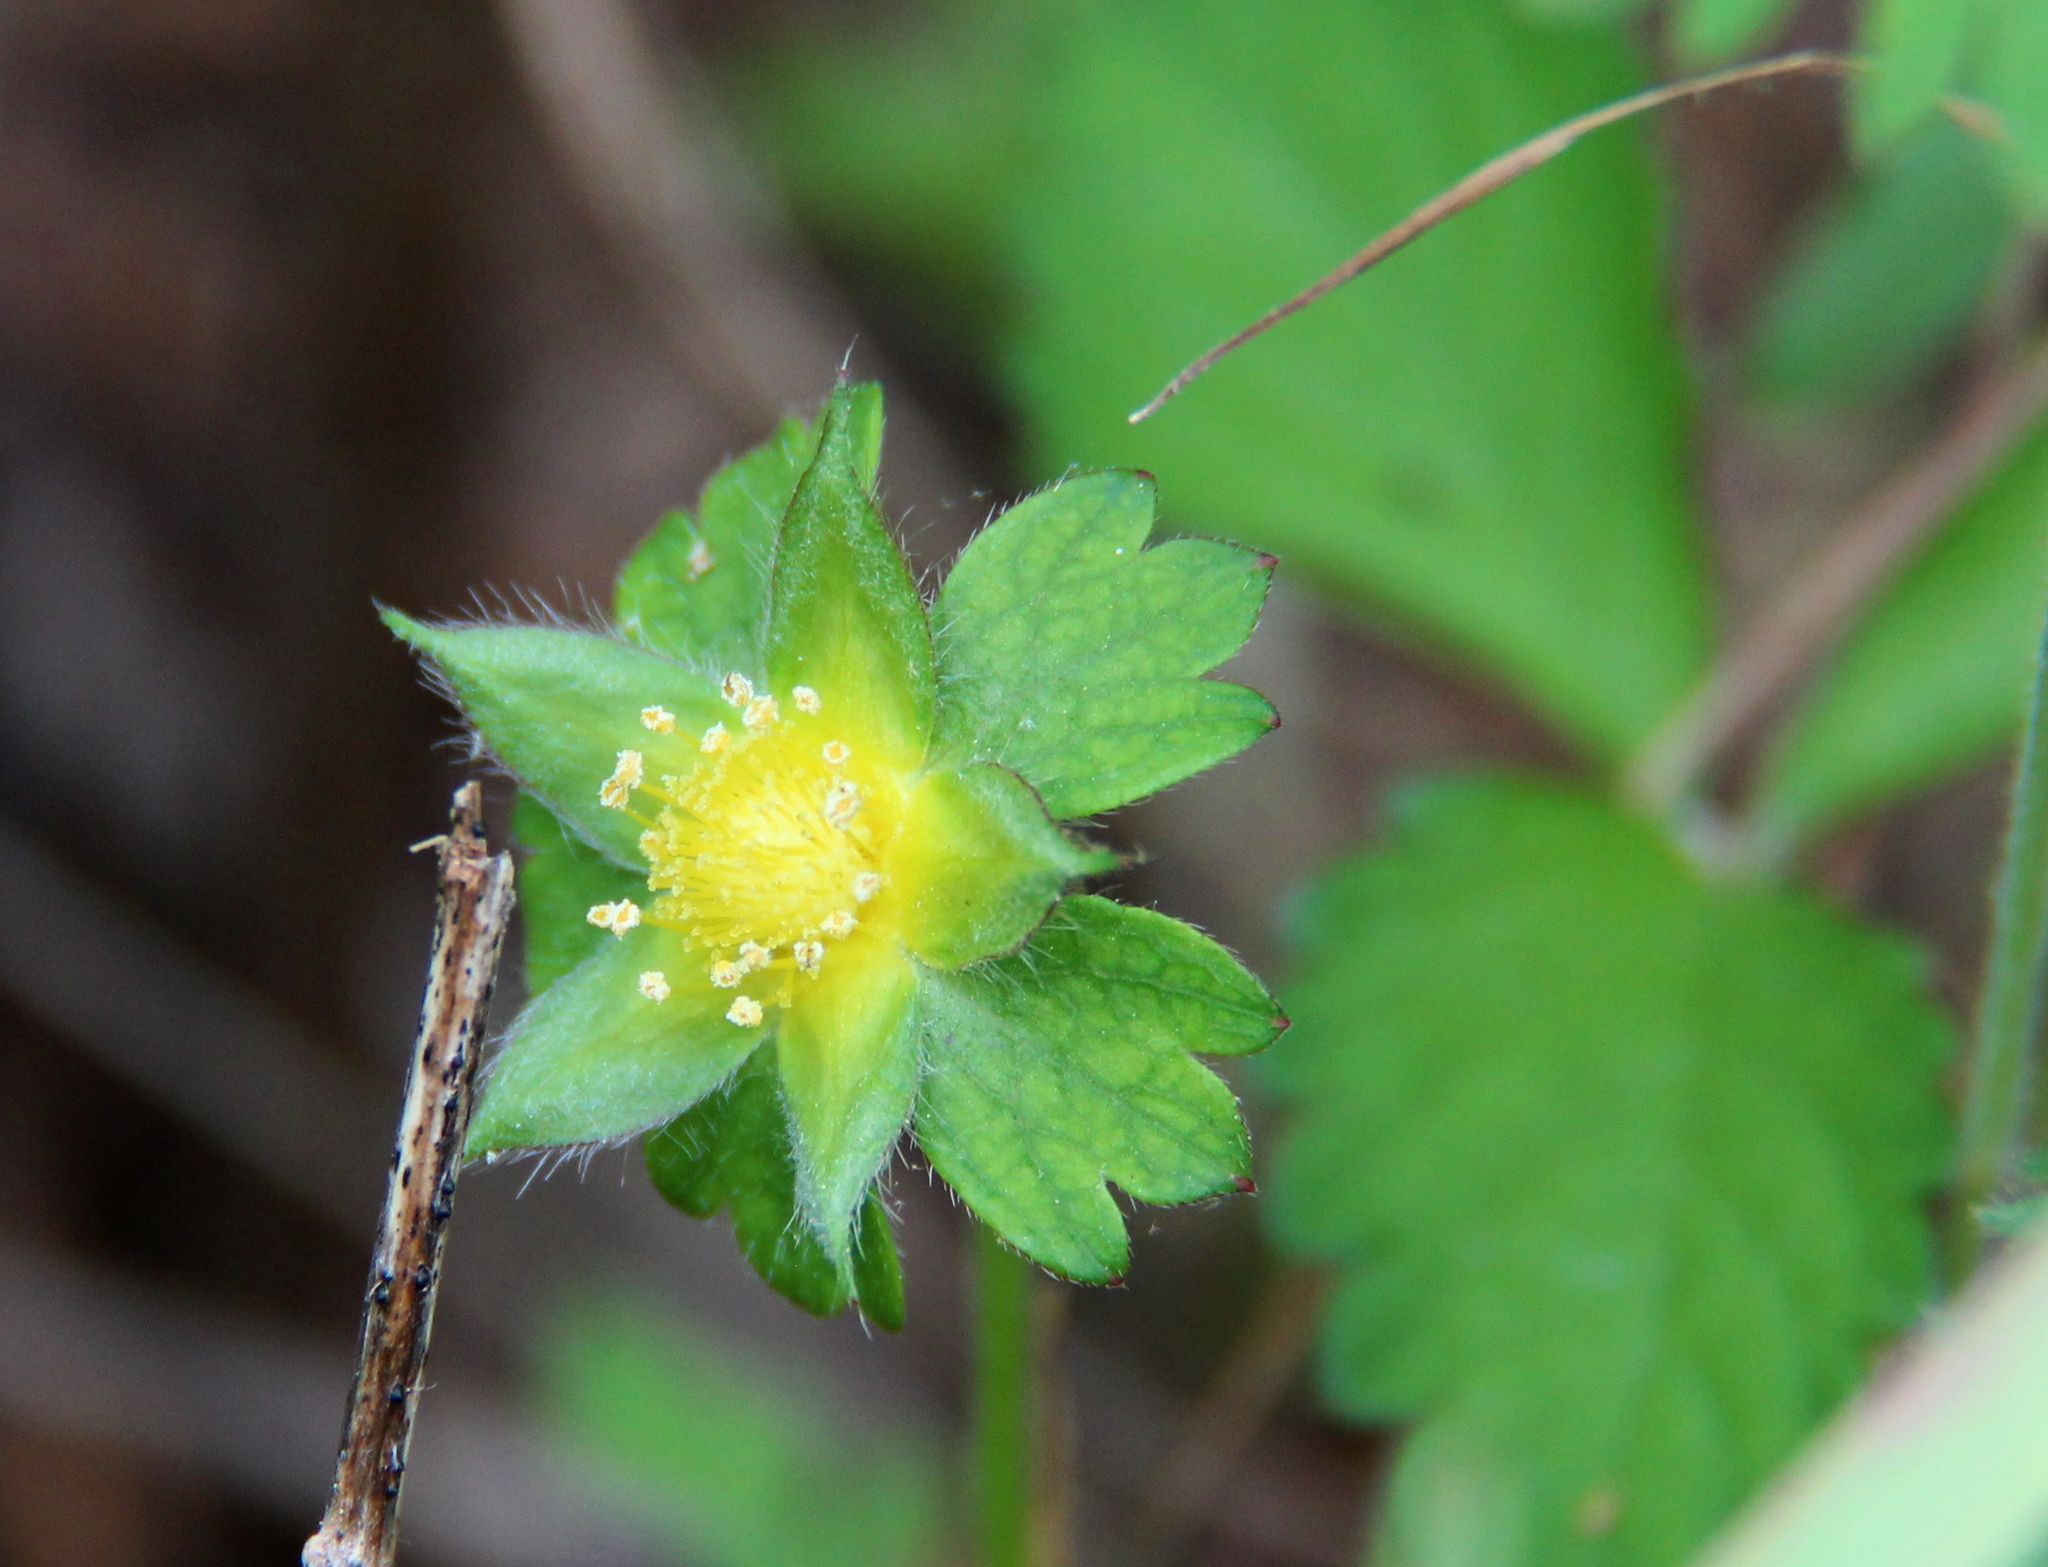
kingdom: Plantae
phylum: Tracheophyta
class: Magnoliopsida
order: Rosales
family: Rosaceae
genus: Potentilla
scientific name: Potentilla indica
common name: Yellow-flowered strawberry
